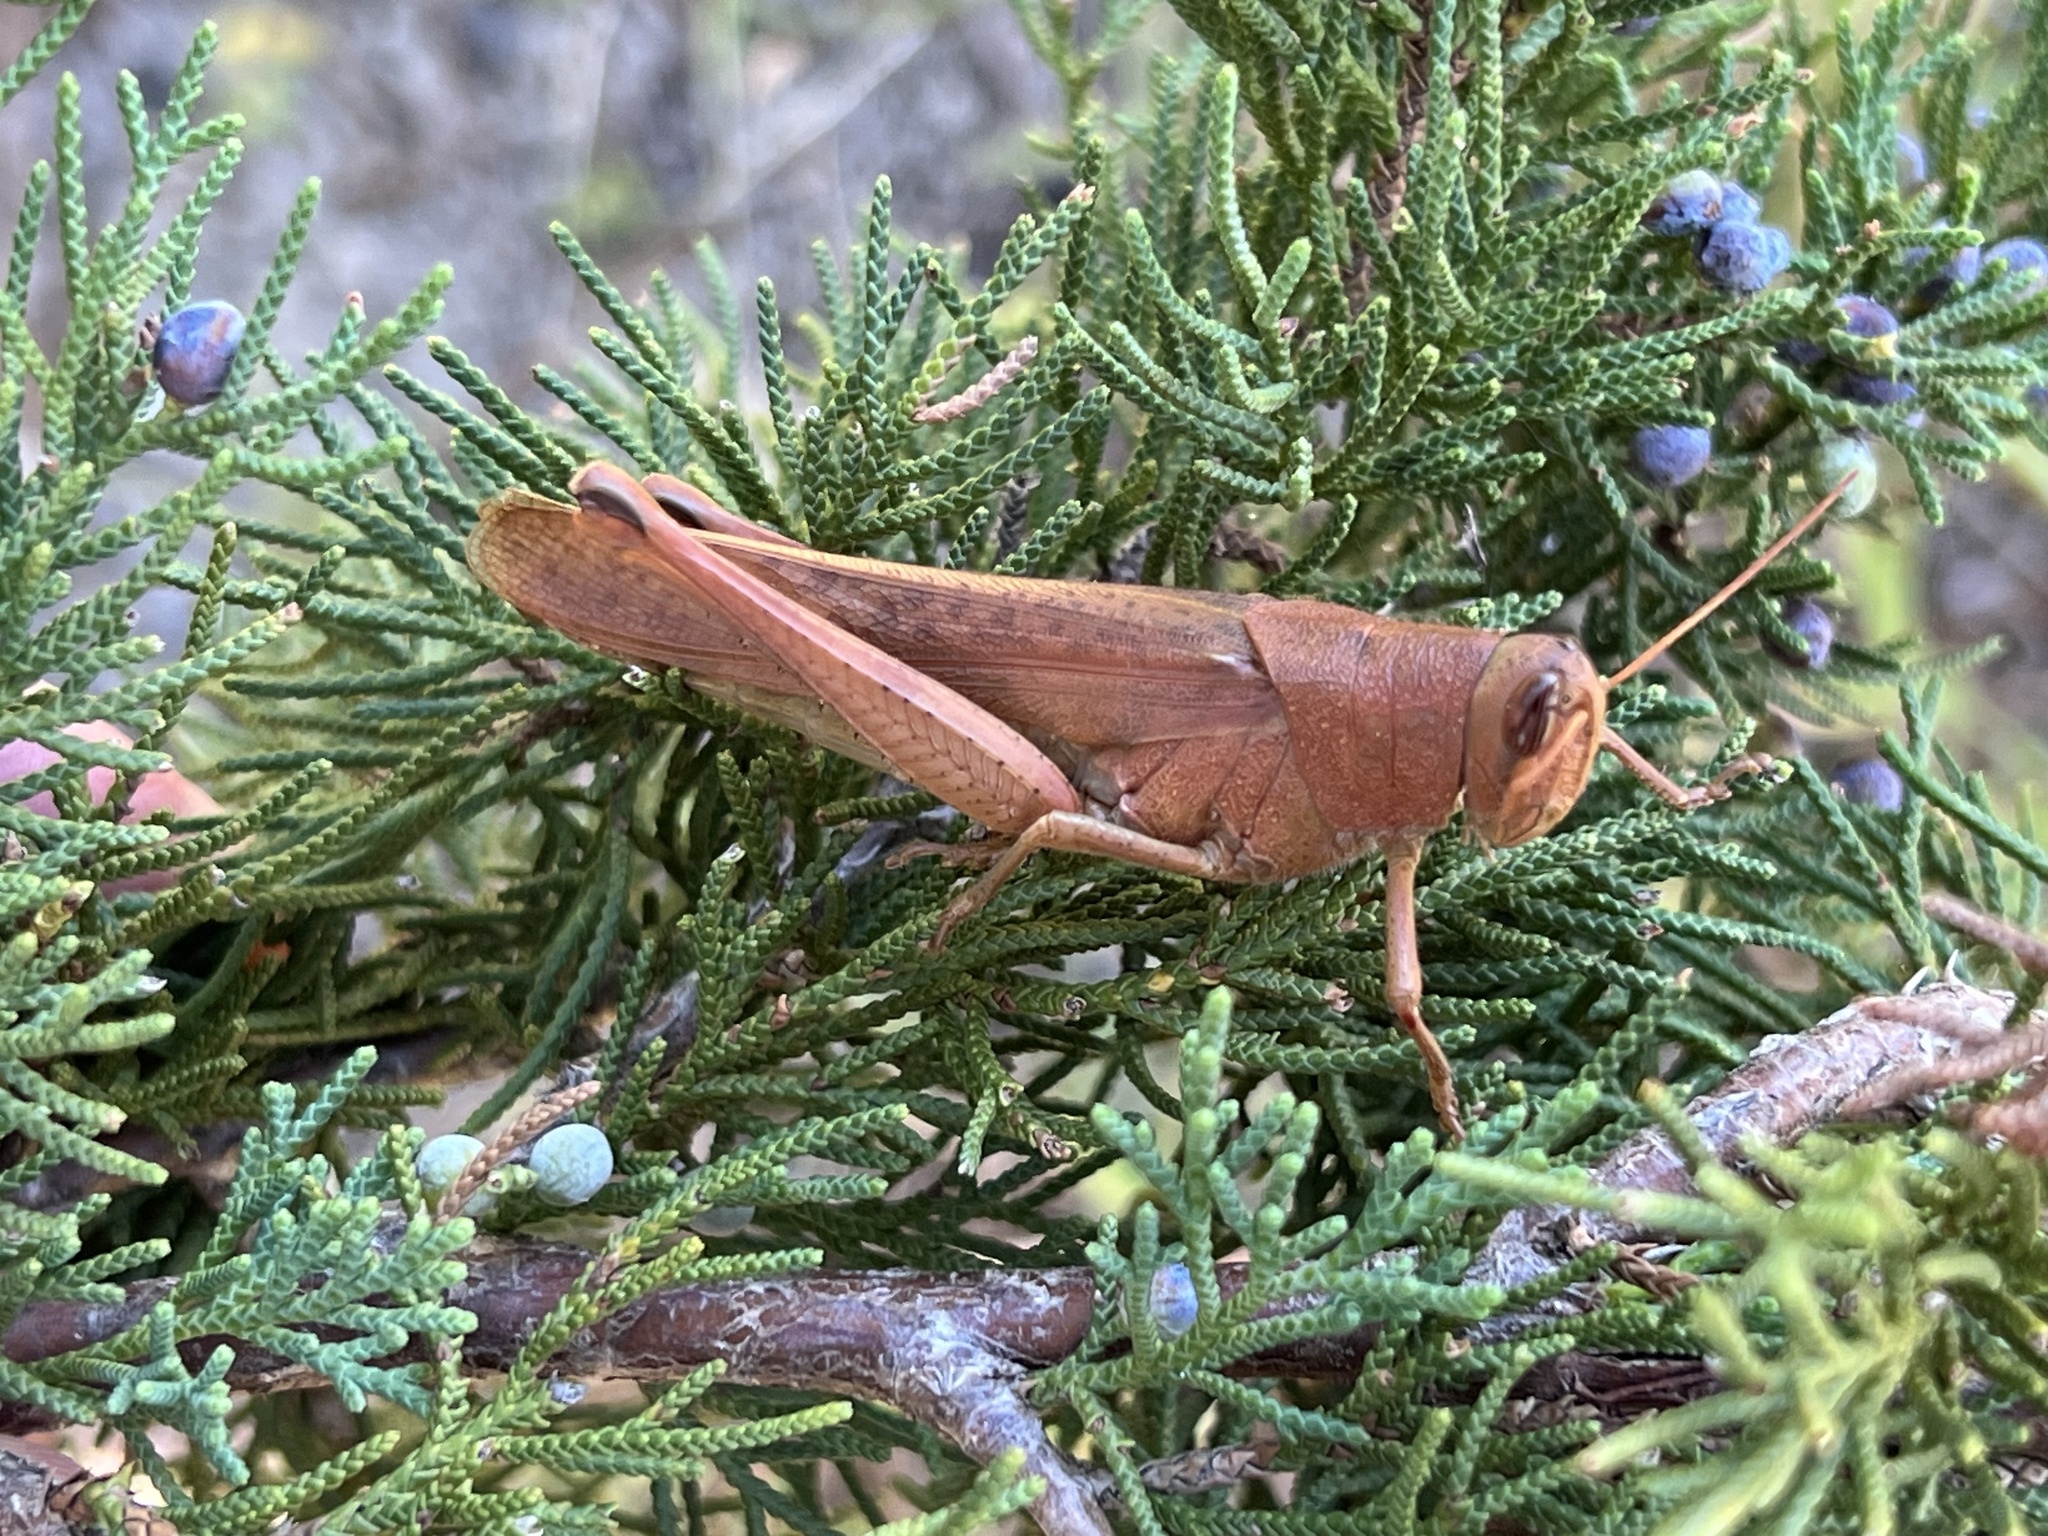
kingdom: Animalia
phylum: Arthropoda
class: Insecta
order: Orthoptera
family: Acrididae
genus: Schistocerca
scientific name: Schistocerca lineata
